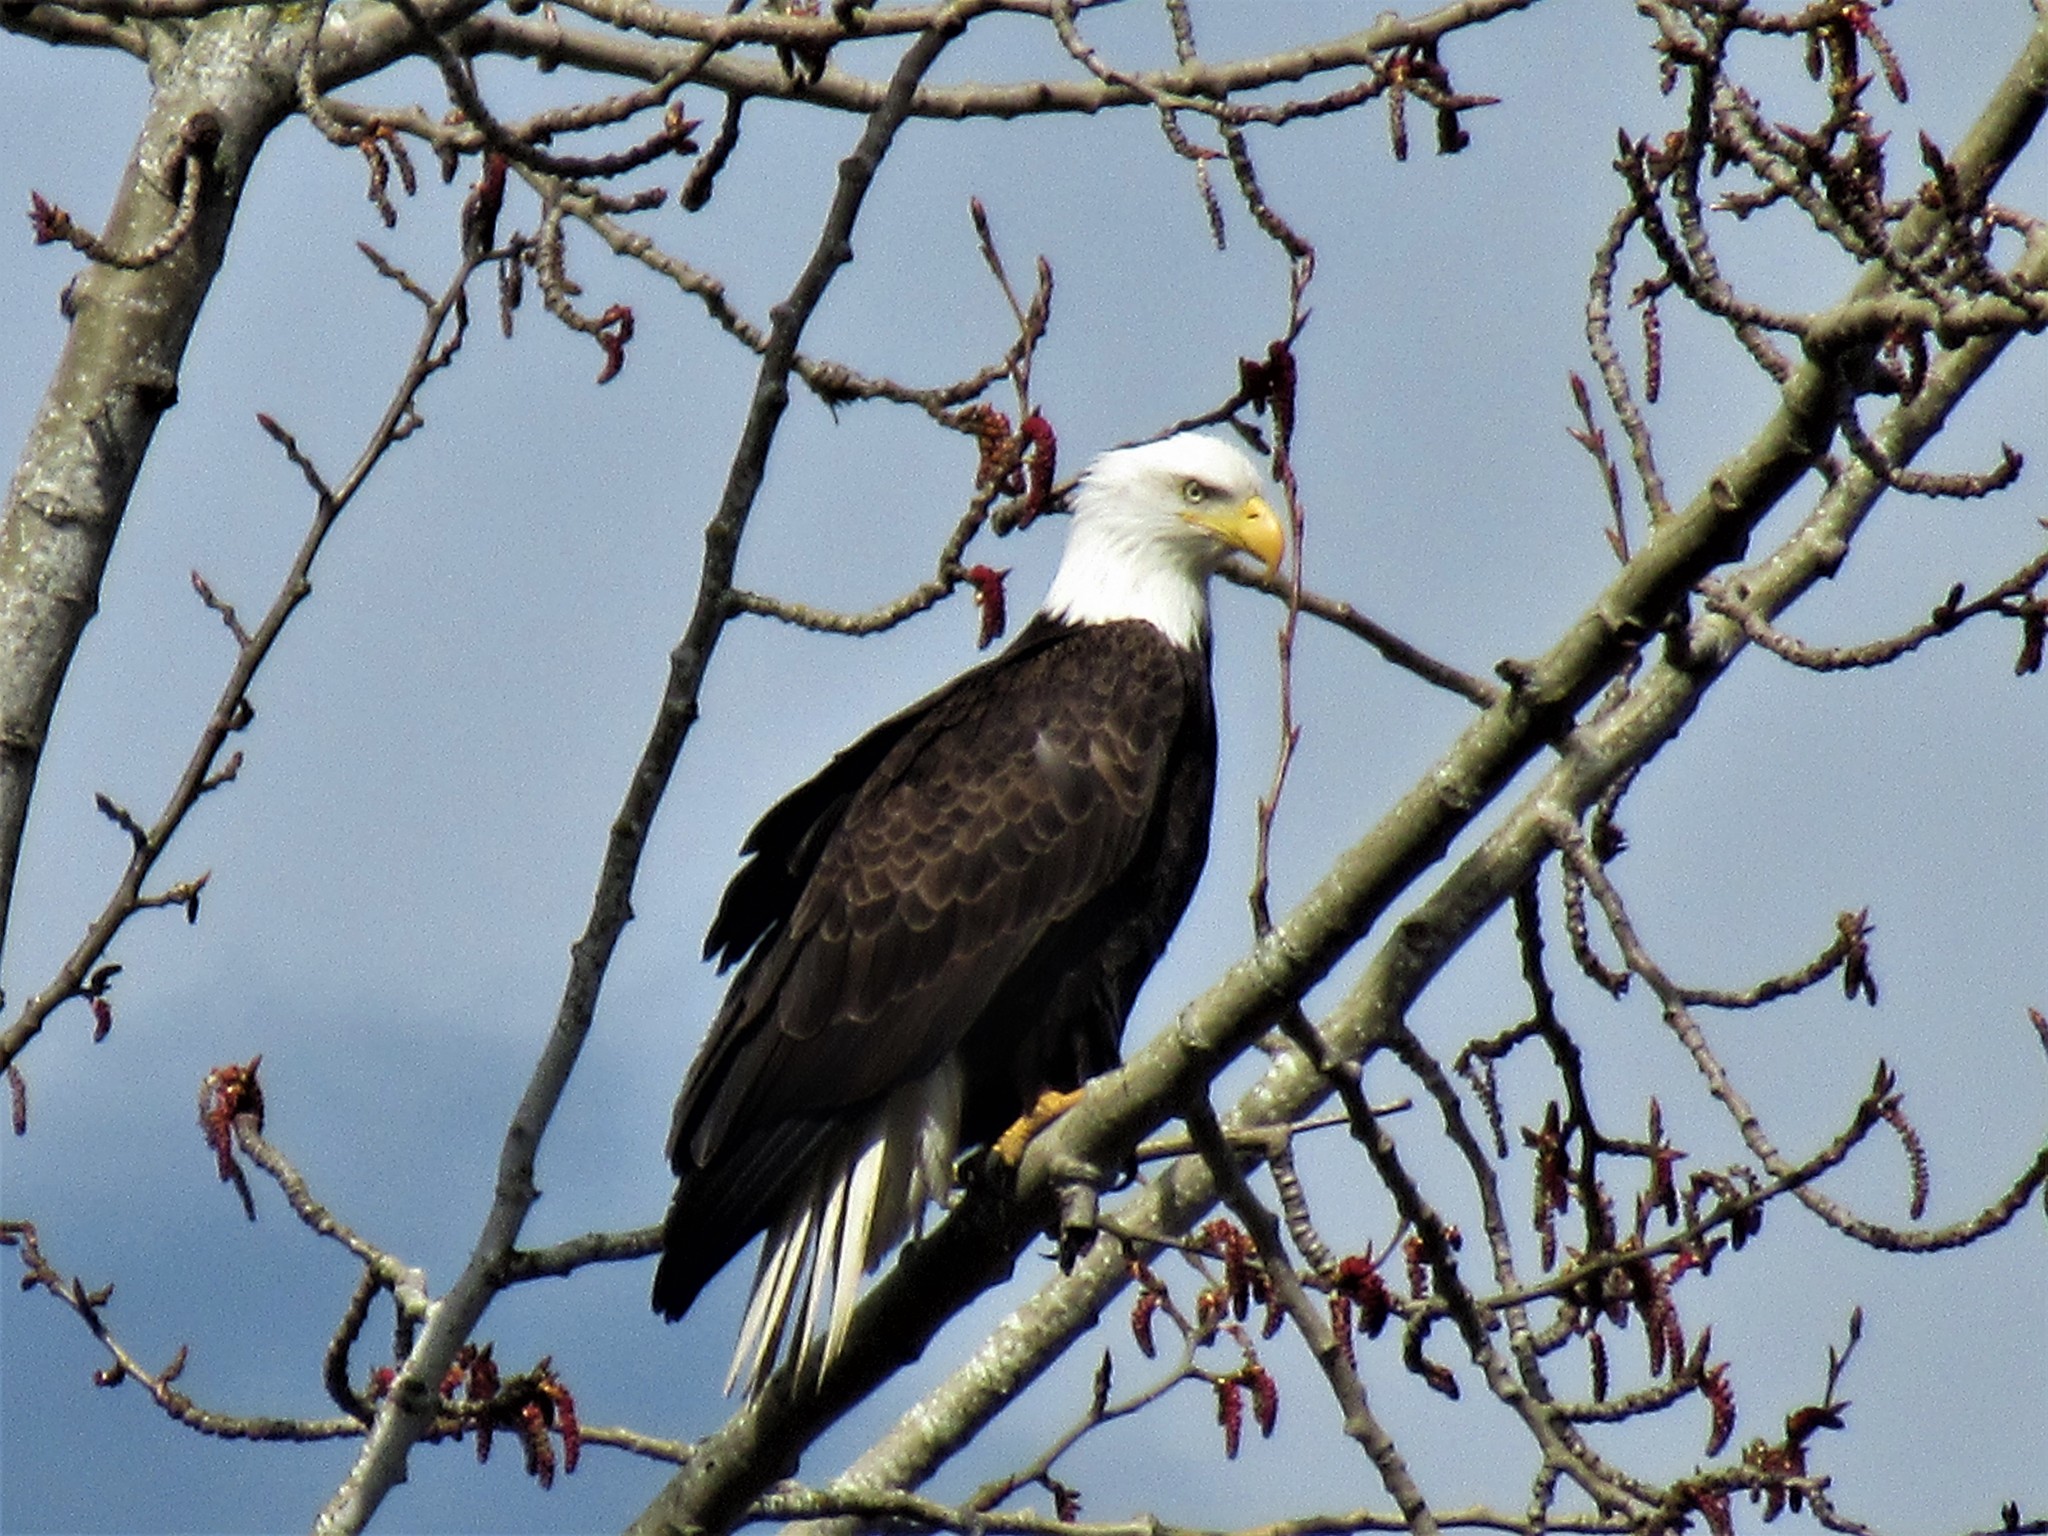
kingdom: Animalia
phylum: Chordata
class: Aves
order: Accipitriformes
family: Accipitridae
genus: Haliaeetus
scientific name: Haliaeetus leucocephalus
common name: Bald eagle
